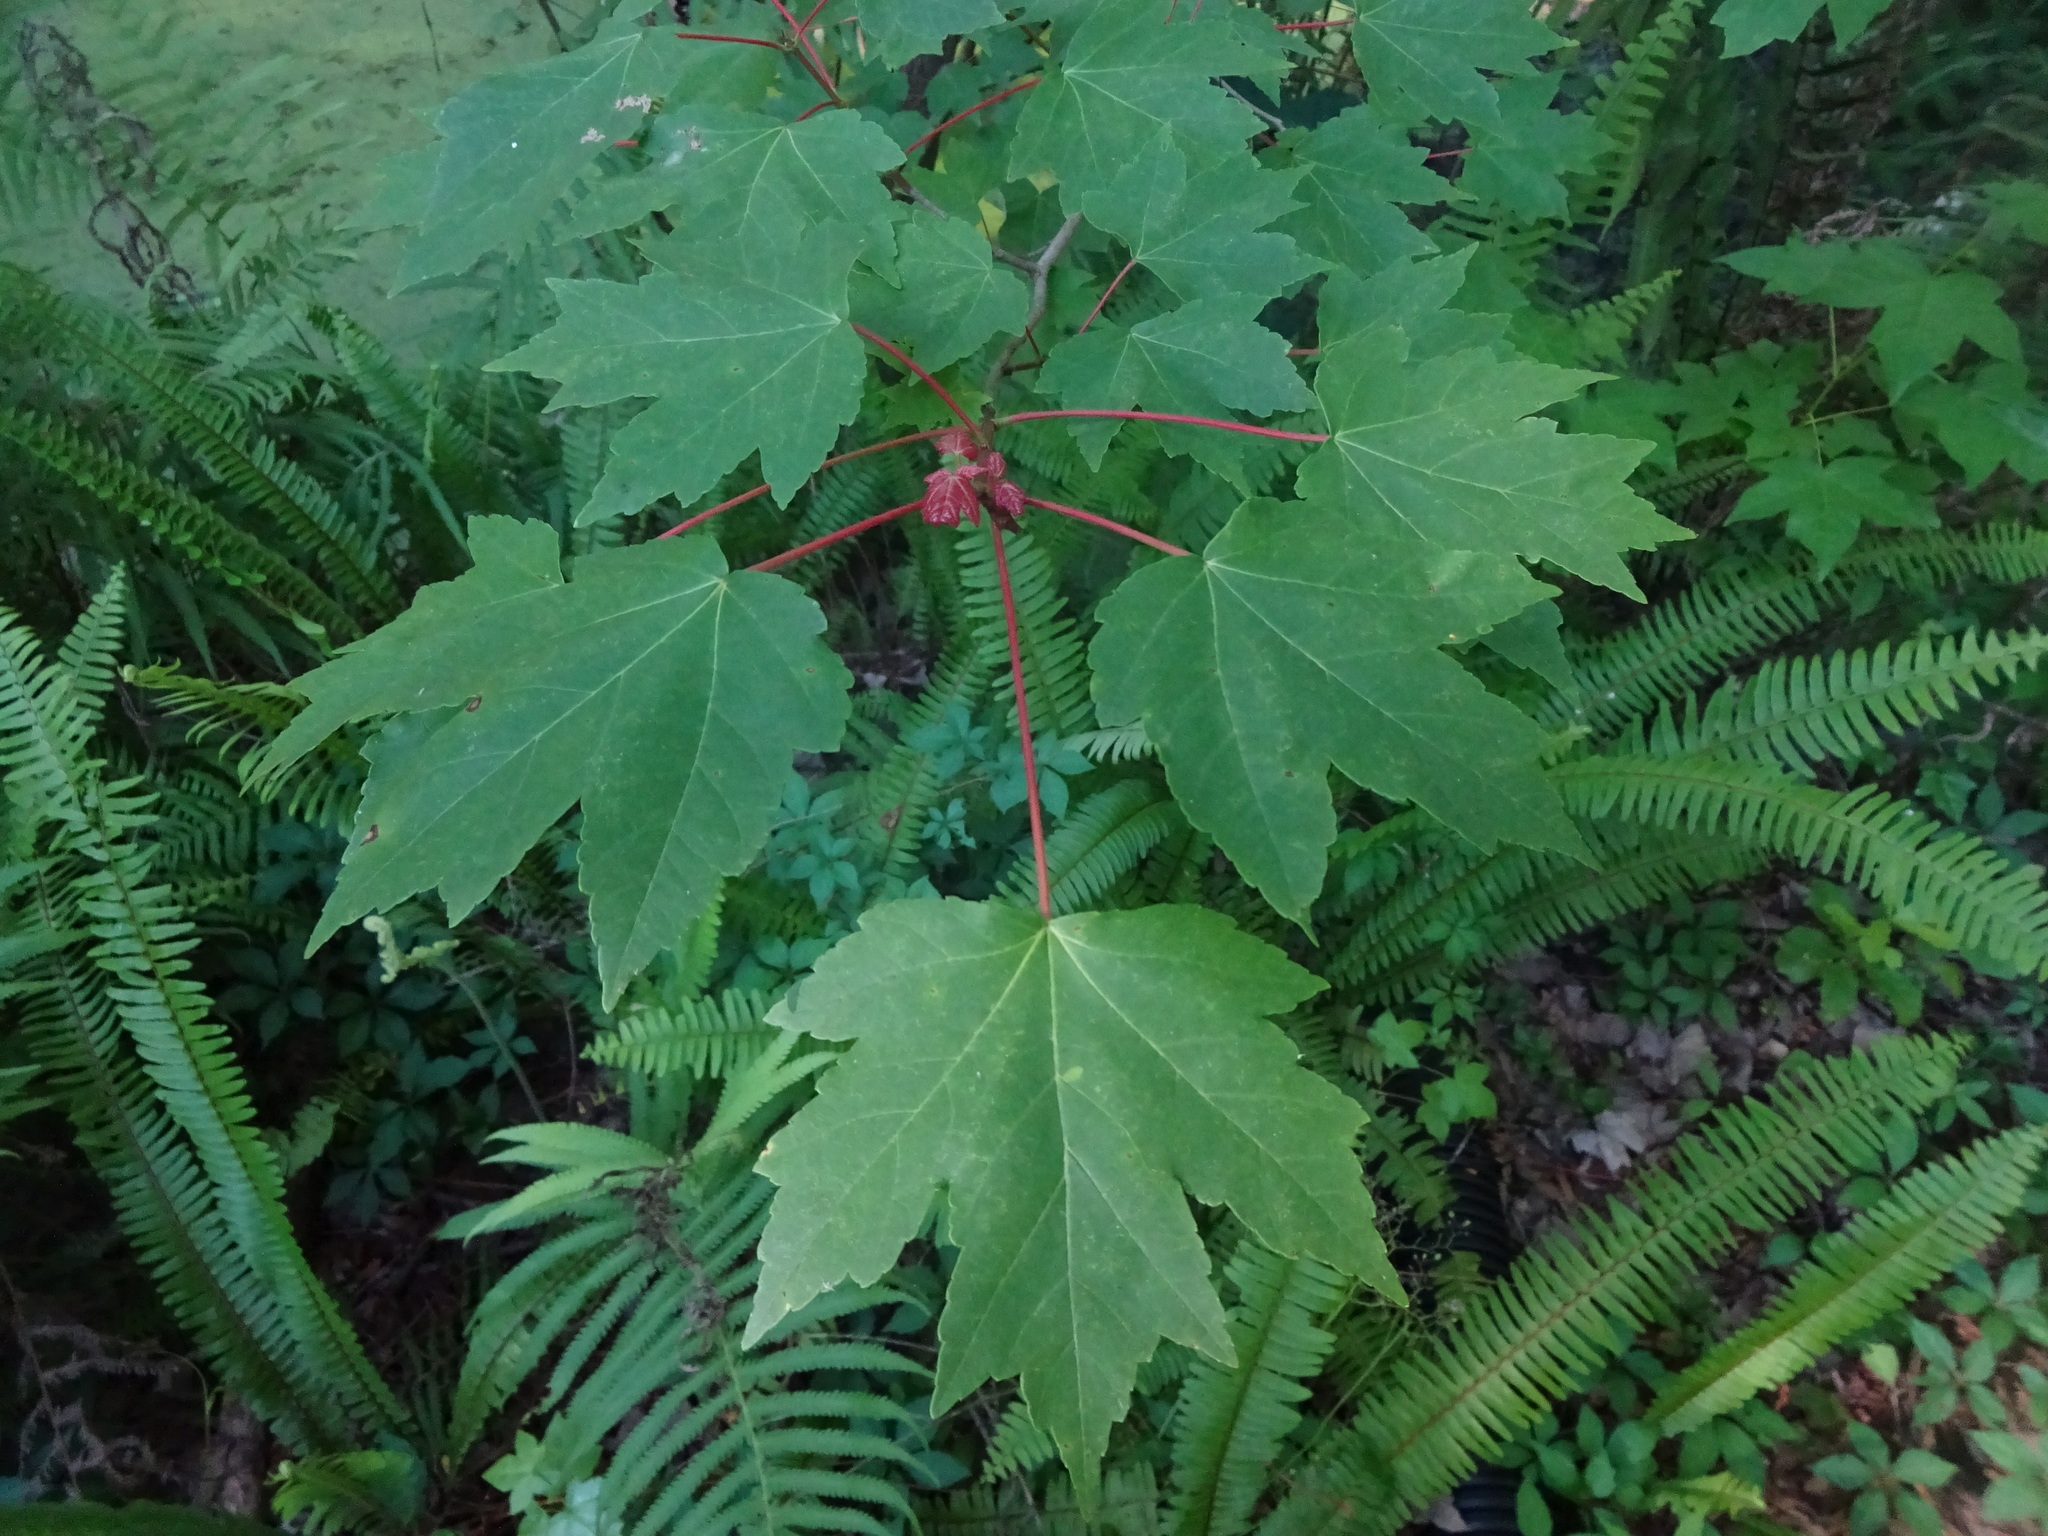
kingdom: Plantae
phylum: Tracheophyta
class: Magnoliopsida
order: Sapindales
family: Sapindaceae
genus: Acer
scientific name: Acer rubrum
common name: Red maple
